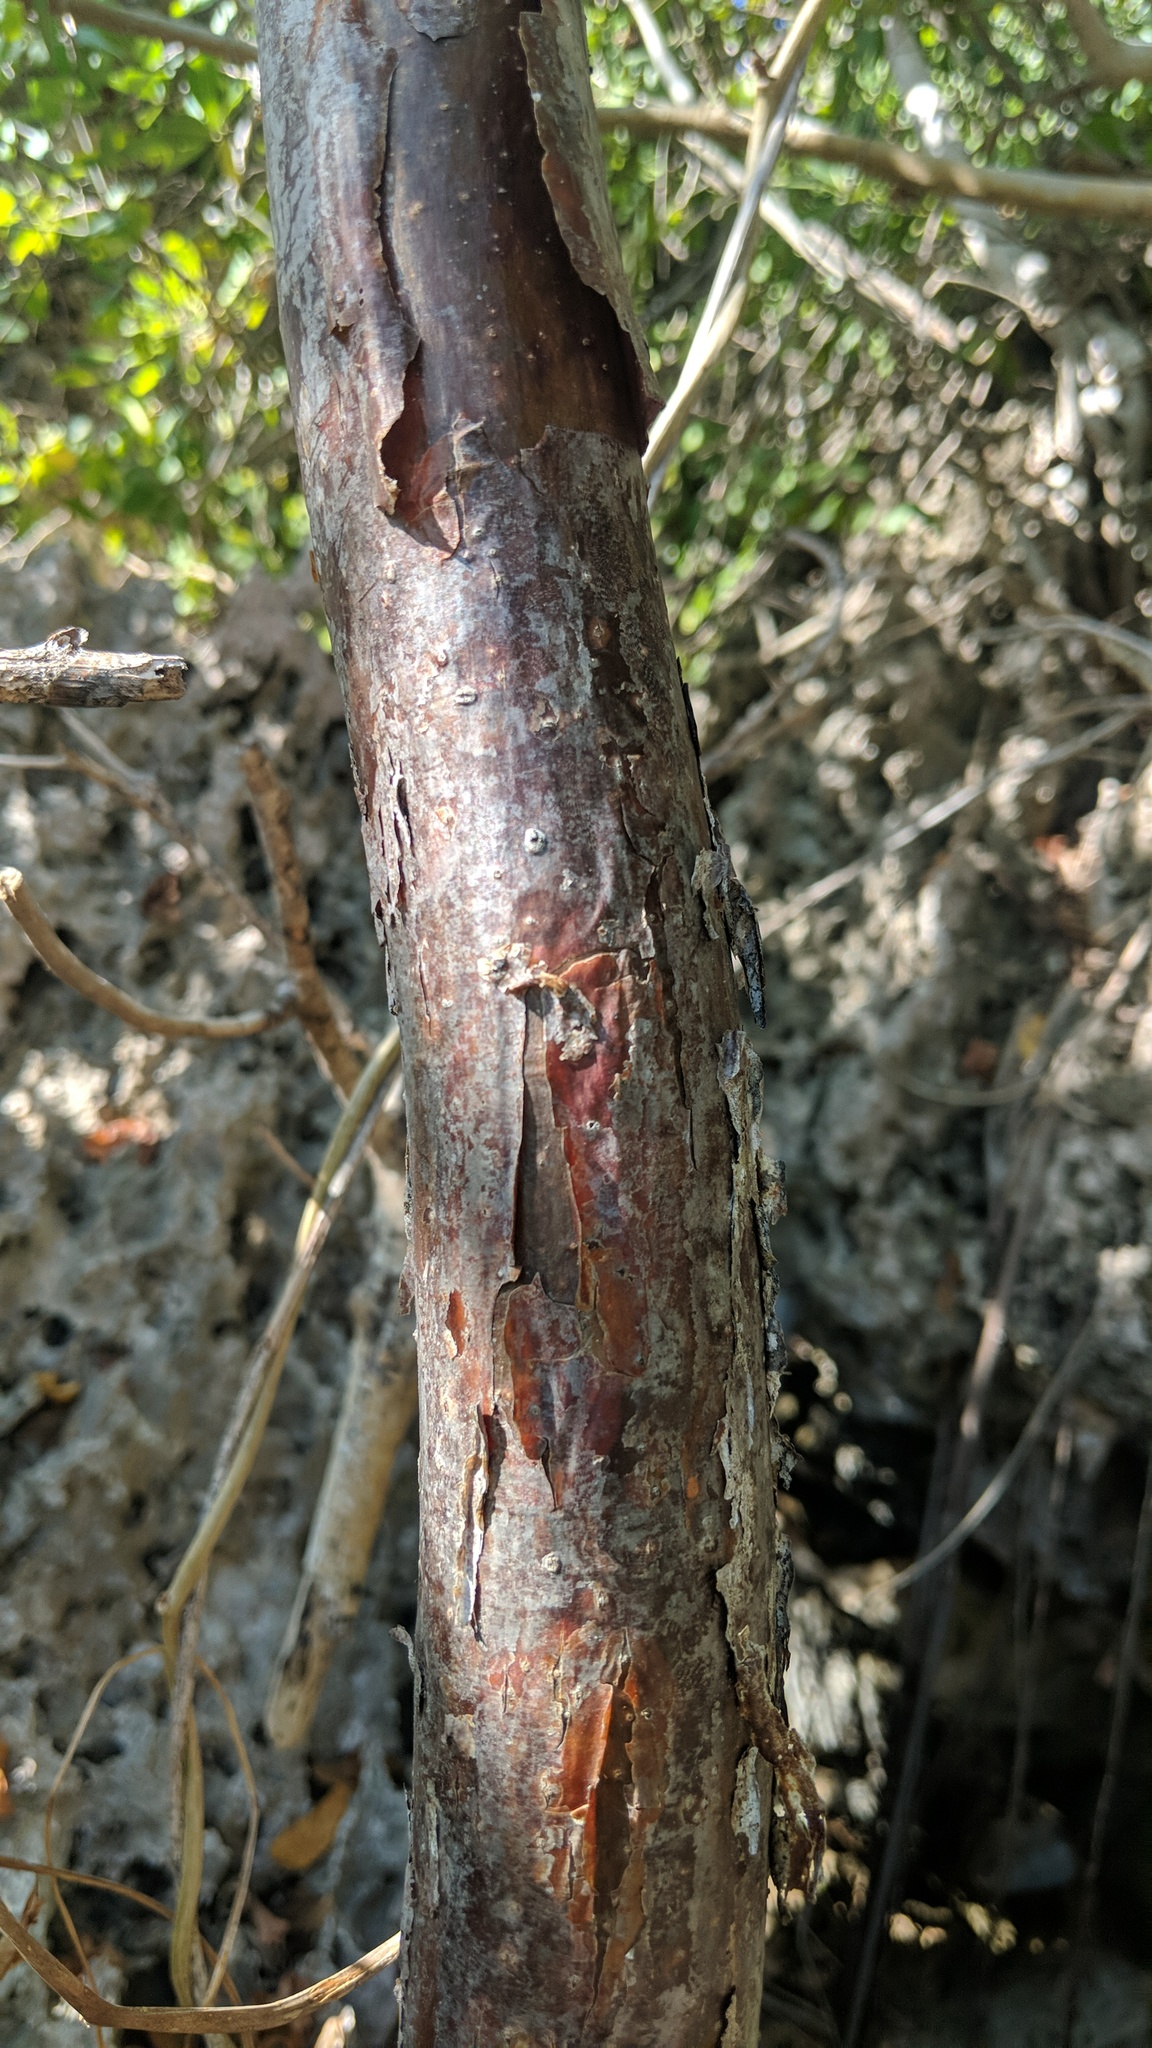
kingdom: Plantae
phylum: Tracheophyta
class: Magnoliopsida
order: Sapindales
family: Burseraceae
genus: Bursera
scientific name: Bursera simaruba
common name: Turpentine tree
